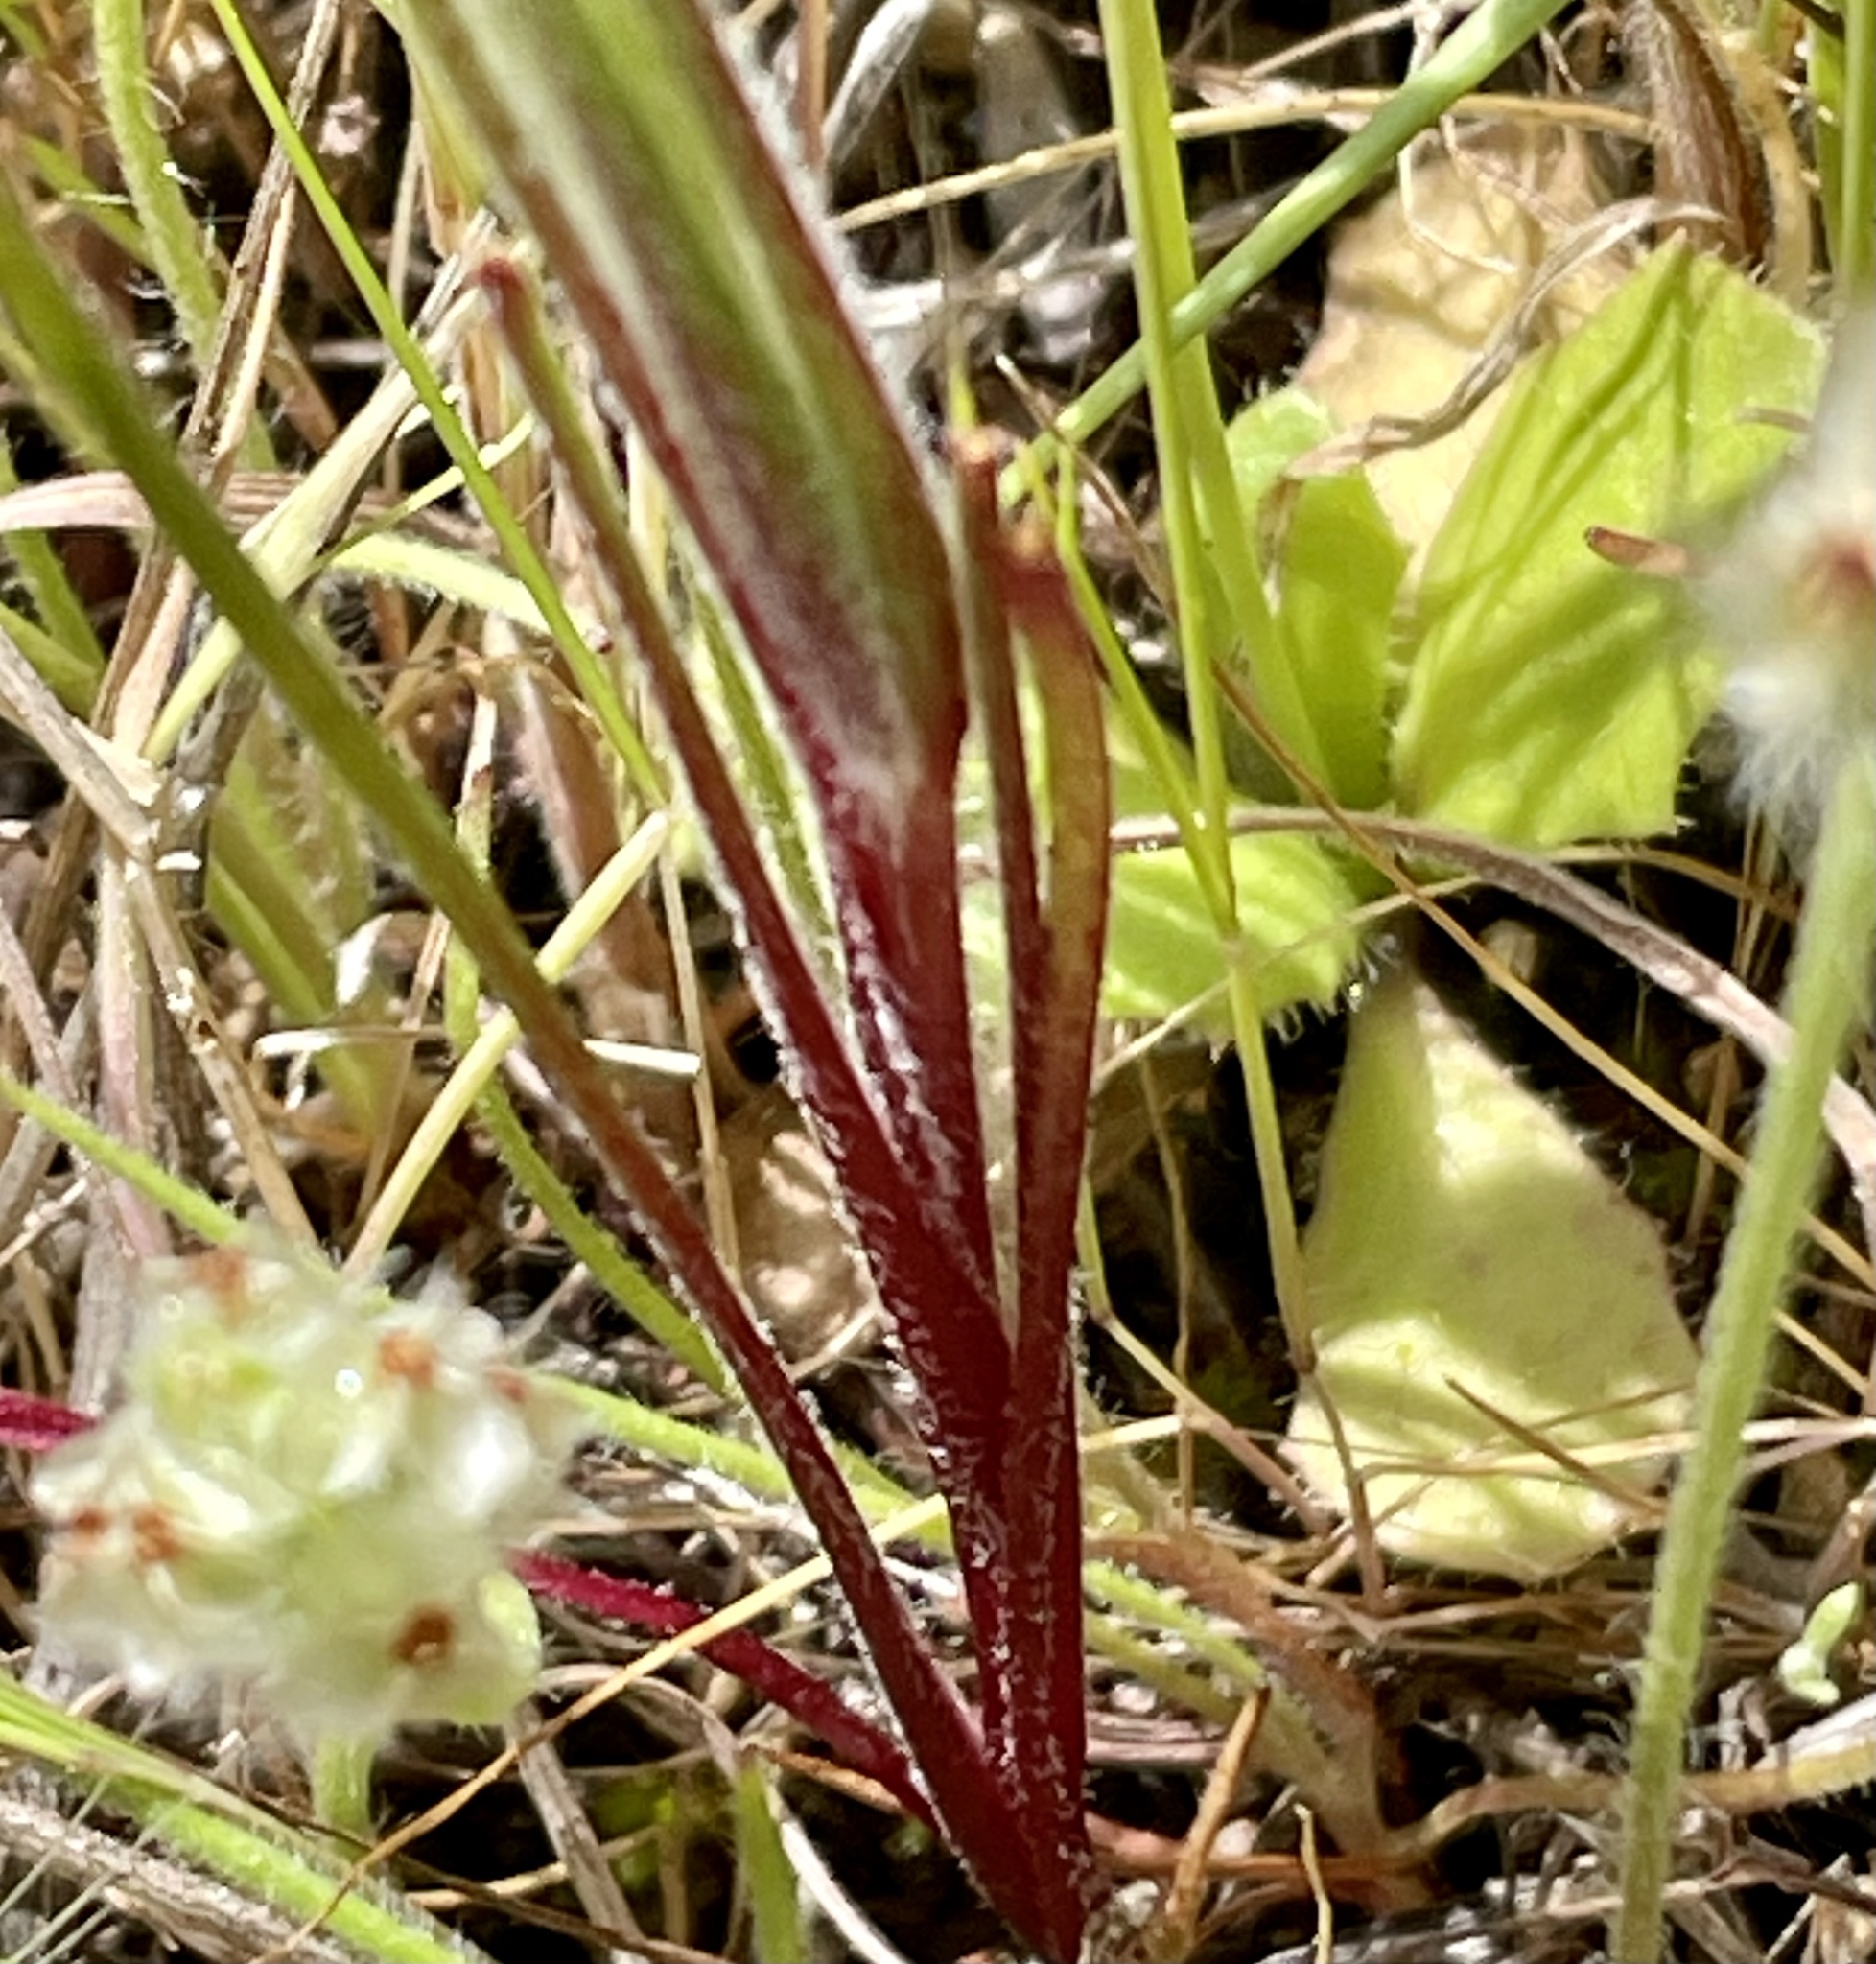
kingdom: Plantae
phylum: Tracheophyta
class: Magnoliopsida
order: Asterales
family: Asteraceae
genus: Microseris
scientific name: Microseris lindleyi
